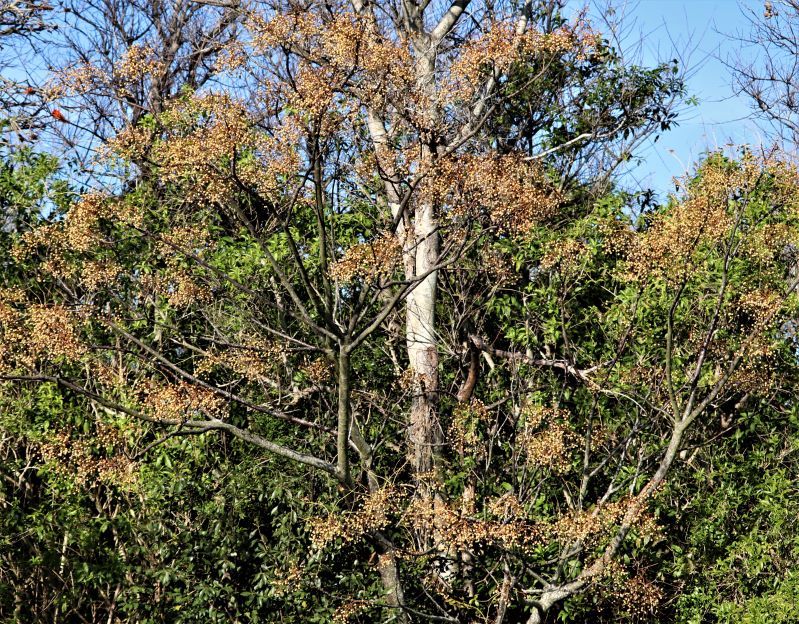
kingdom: Plantae
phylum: Tracheophyta
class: Magnoliopsida
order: Sapindales
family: Meliaceae
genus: Melia
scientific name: Melia azedarach
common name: Chinaberrytree
